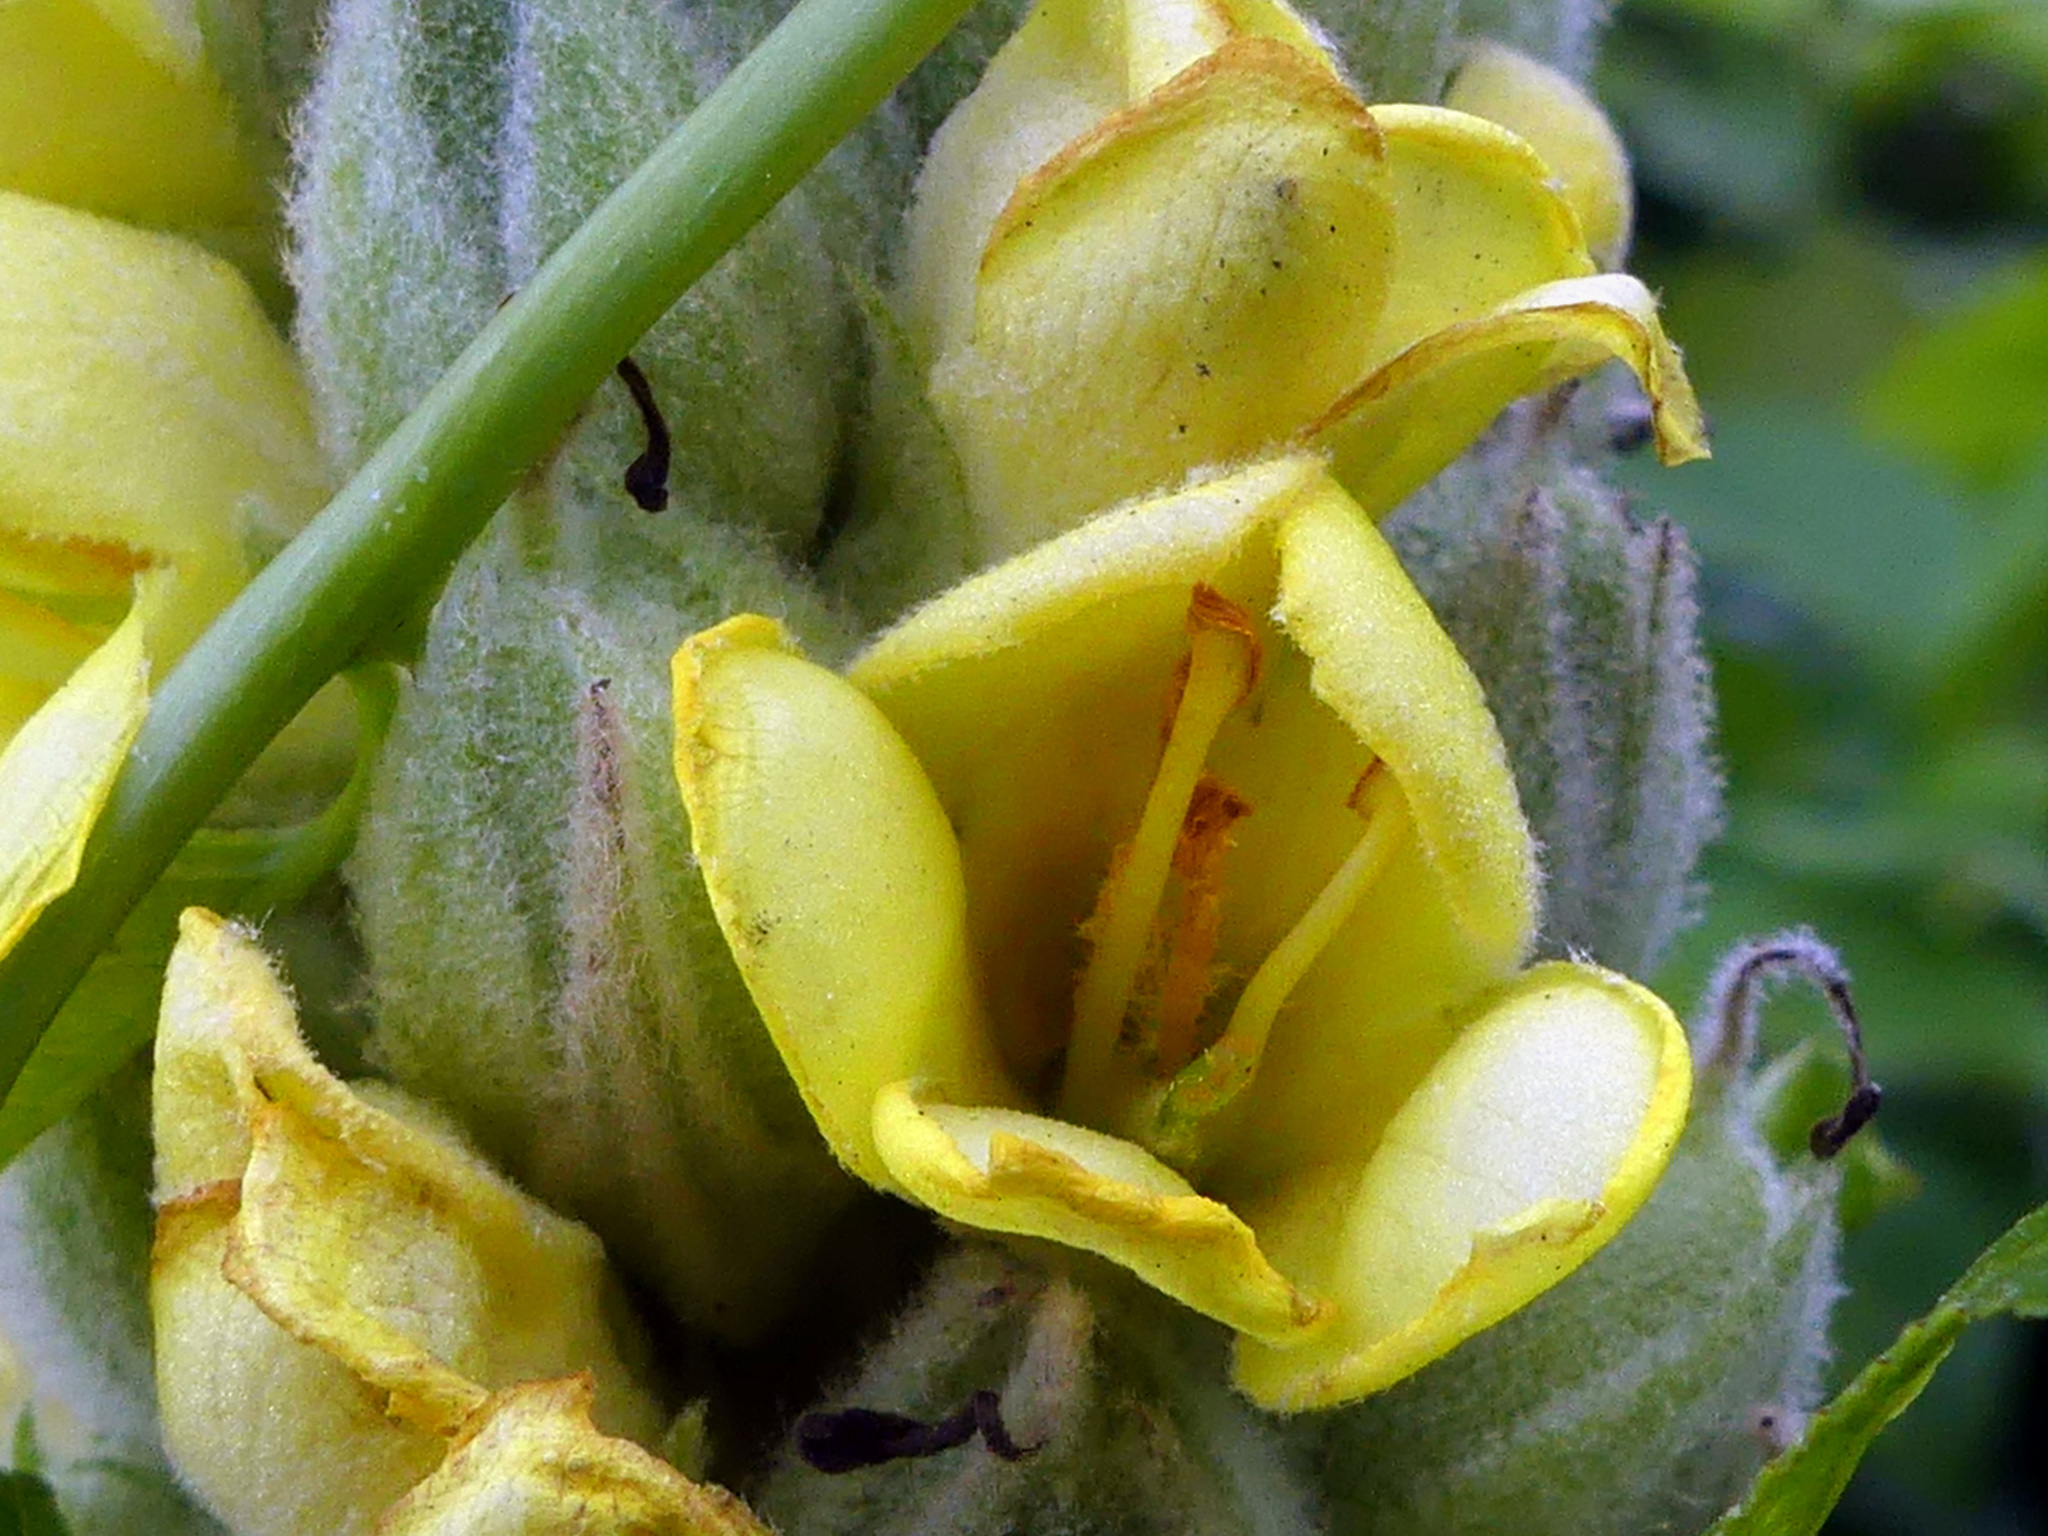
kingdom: Plantae
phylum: Tracheophyta
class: Magnoliopsida
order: Lamiales
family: Scrophulariaceae
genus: Verbascum
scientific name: Verbascum thapsus
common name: Common mullein
